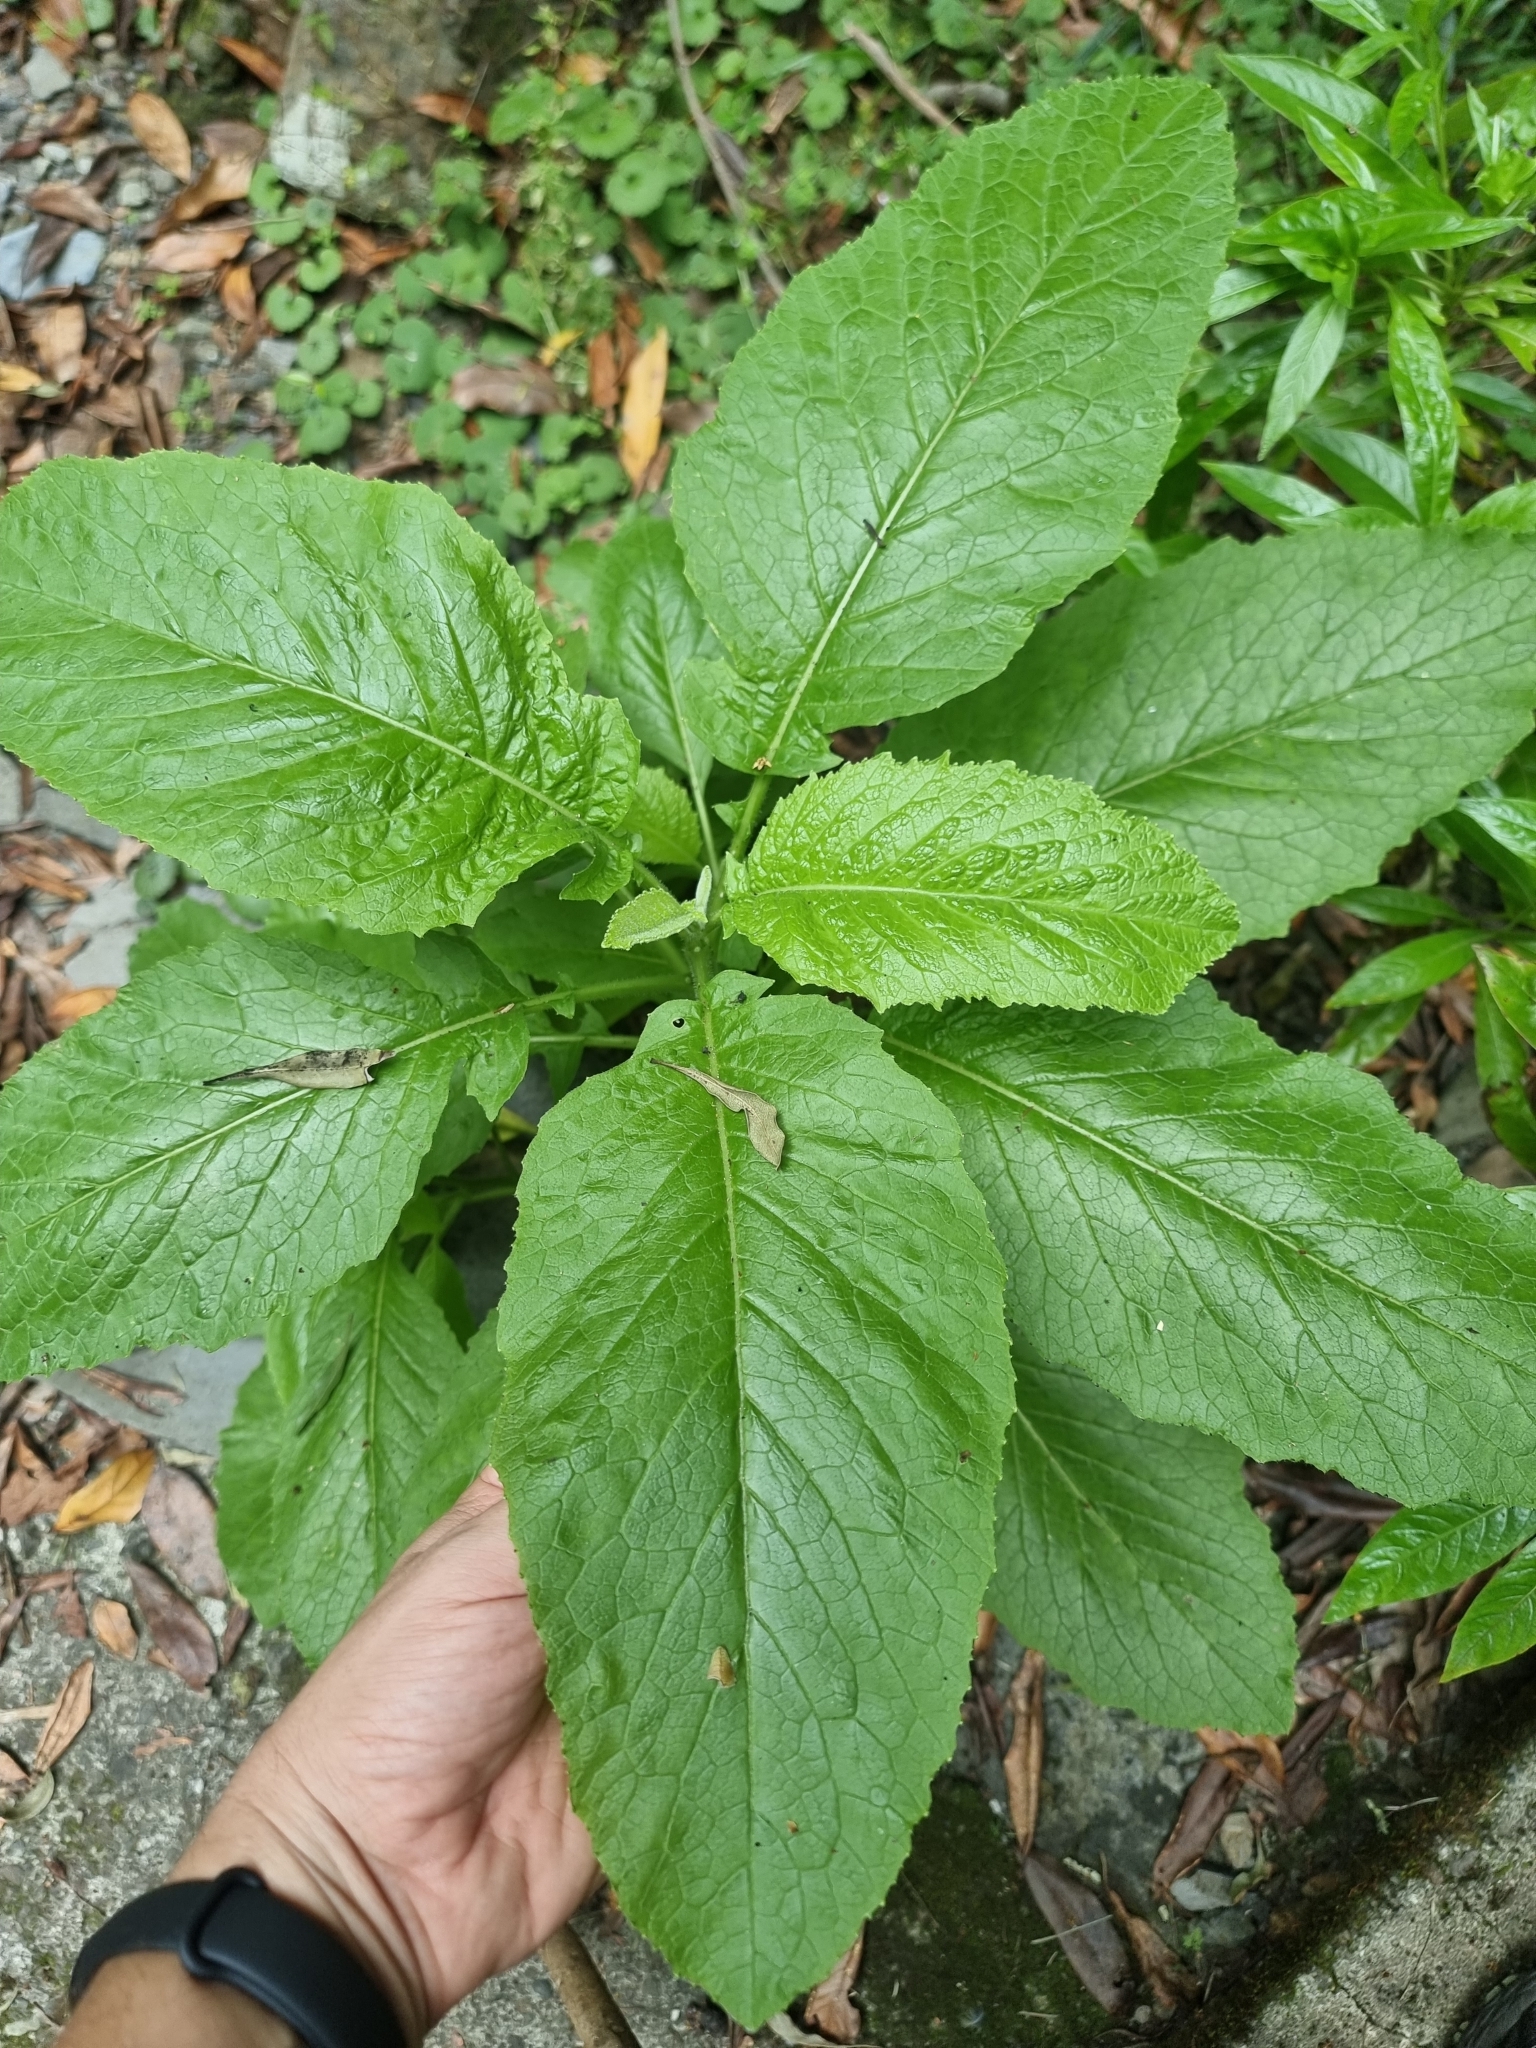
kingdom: Plantae
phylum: Tracheophyta
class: Magnoliopsida
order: Brassicales
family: Brassicaceae
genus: Sinapidendron
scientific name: Sinapidendron rupestre
